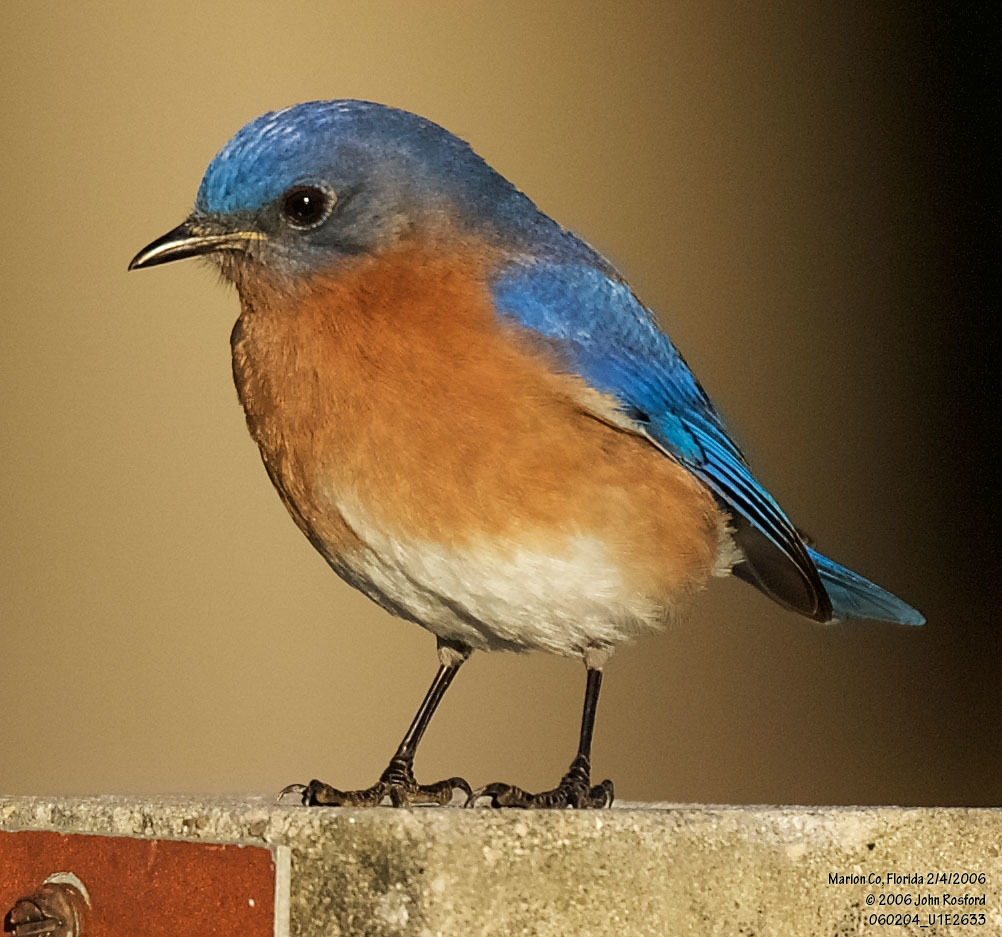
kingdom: Animalia
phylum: Chordata
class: Aves
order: Passeriformes
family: Turdidae
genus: Sialia
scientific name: Sialia sialis
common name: Eastern bluebird
